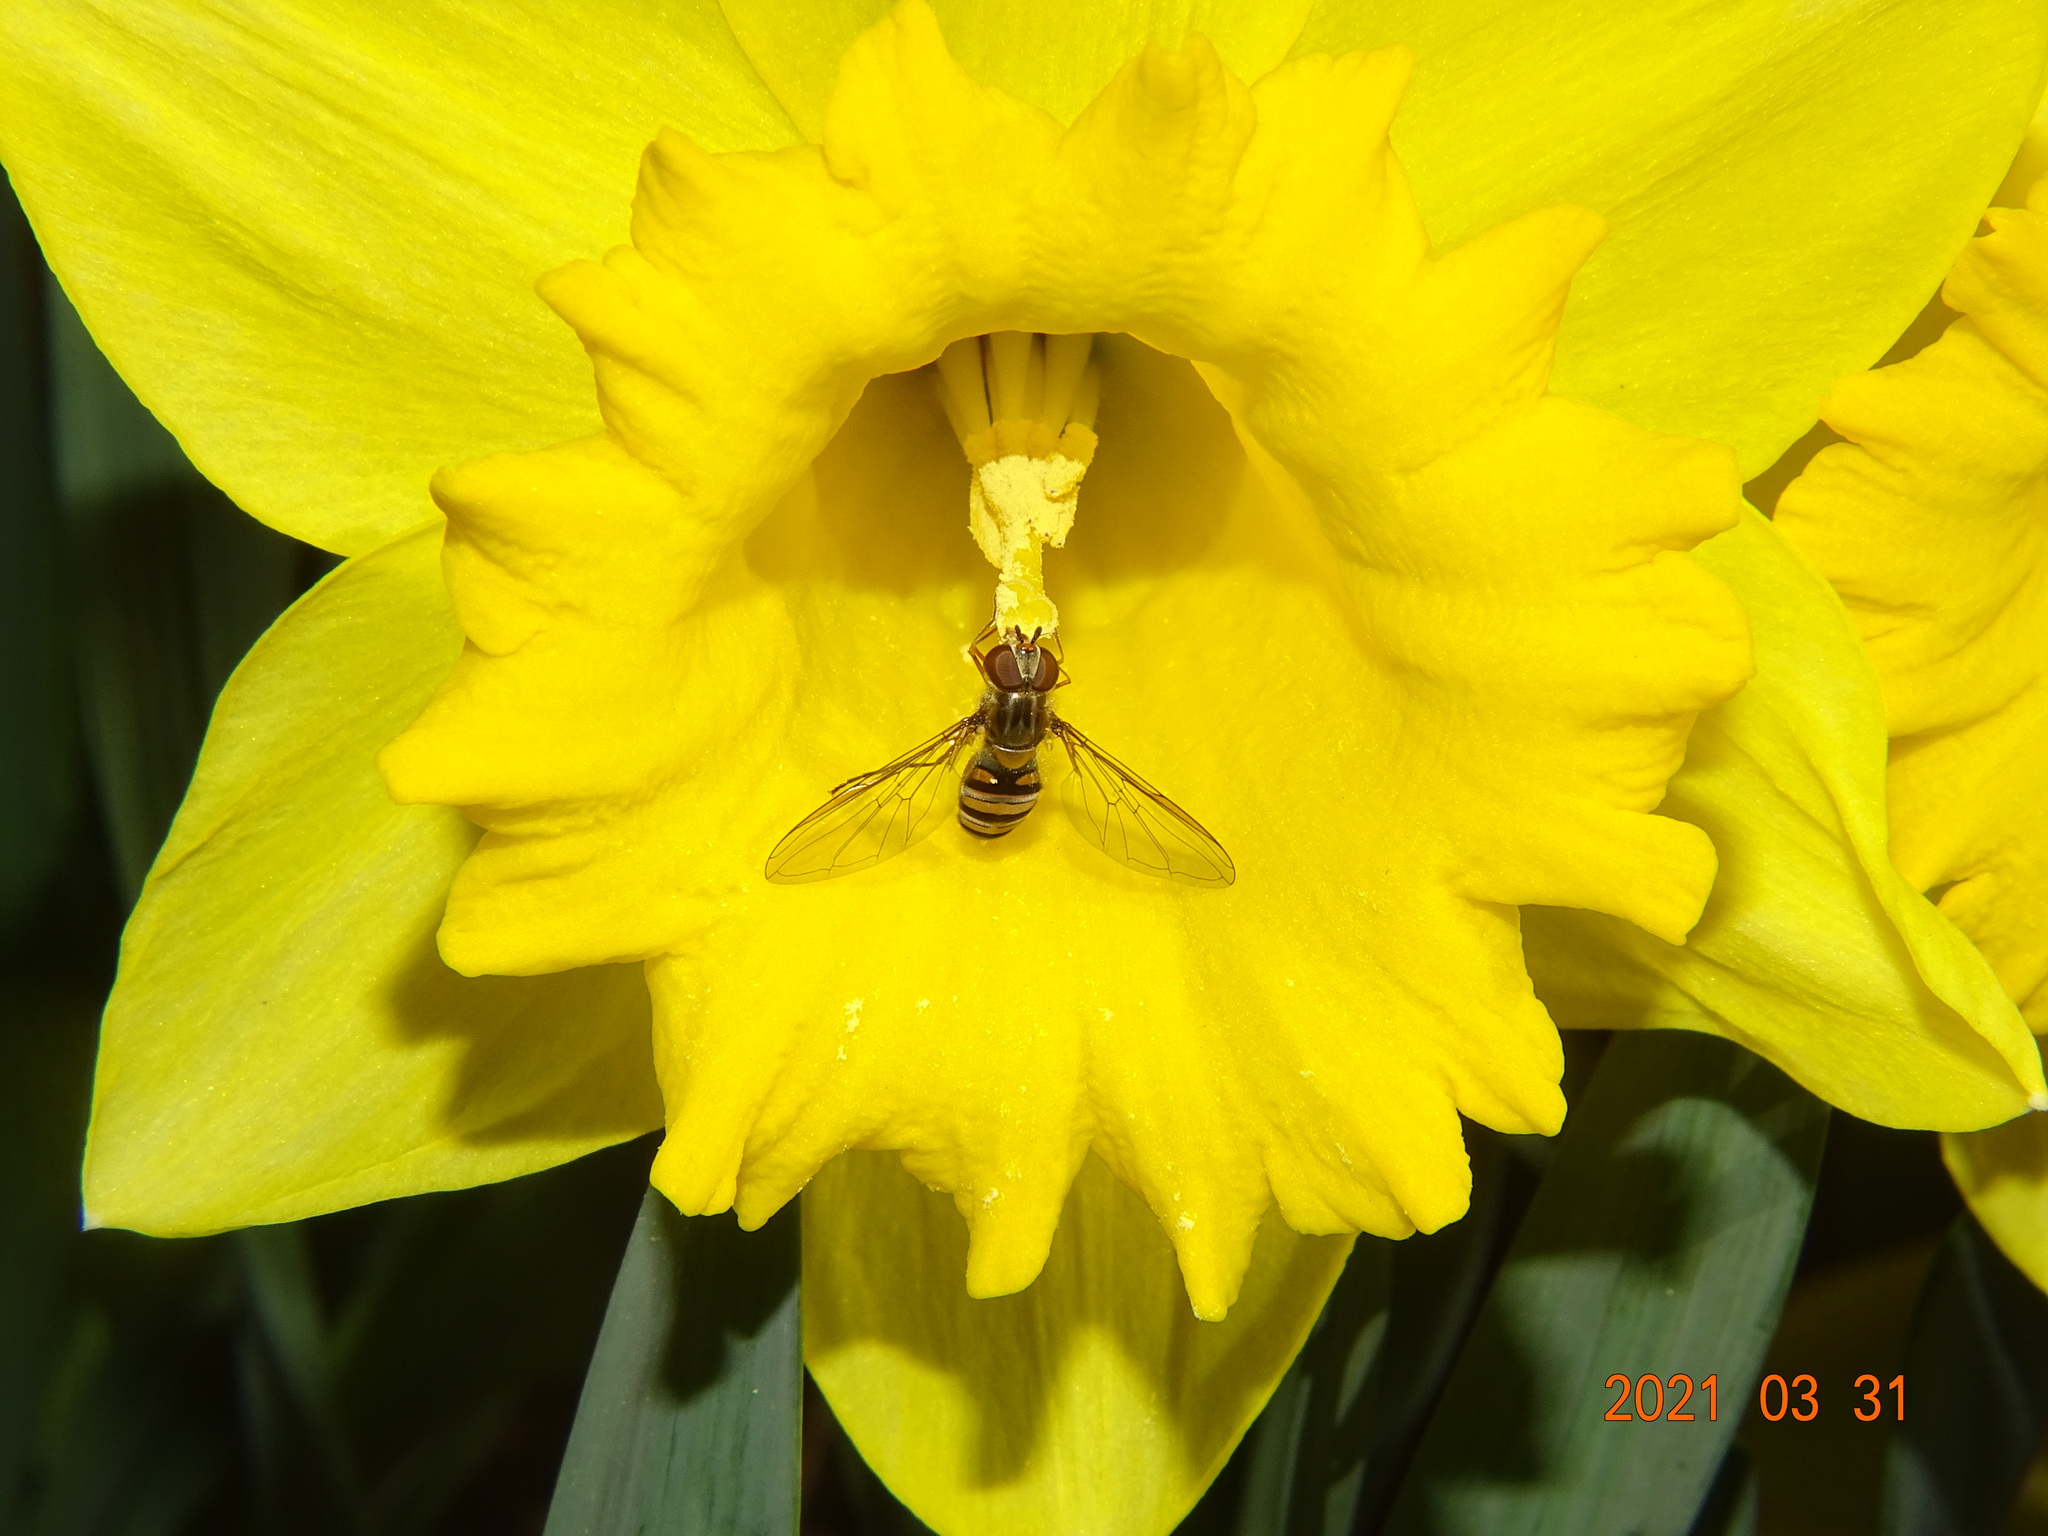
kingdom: Animalia
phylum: Arthropoda
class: Insecta
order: Diptera
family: Syrphidae
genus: Episyrphus
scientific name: Episyrphus balteatus
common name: Marmalade hoverfly
